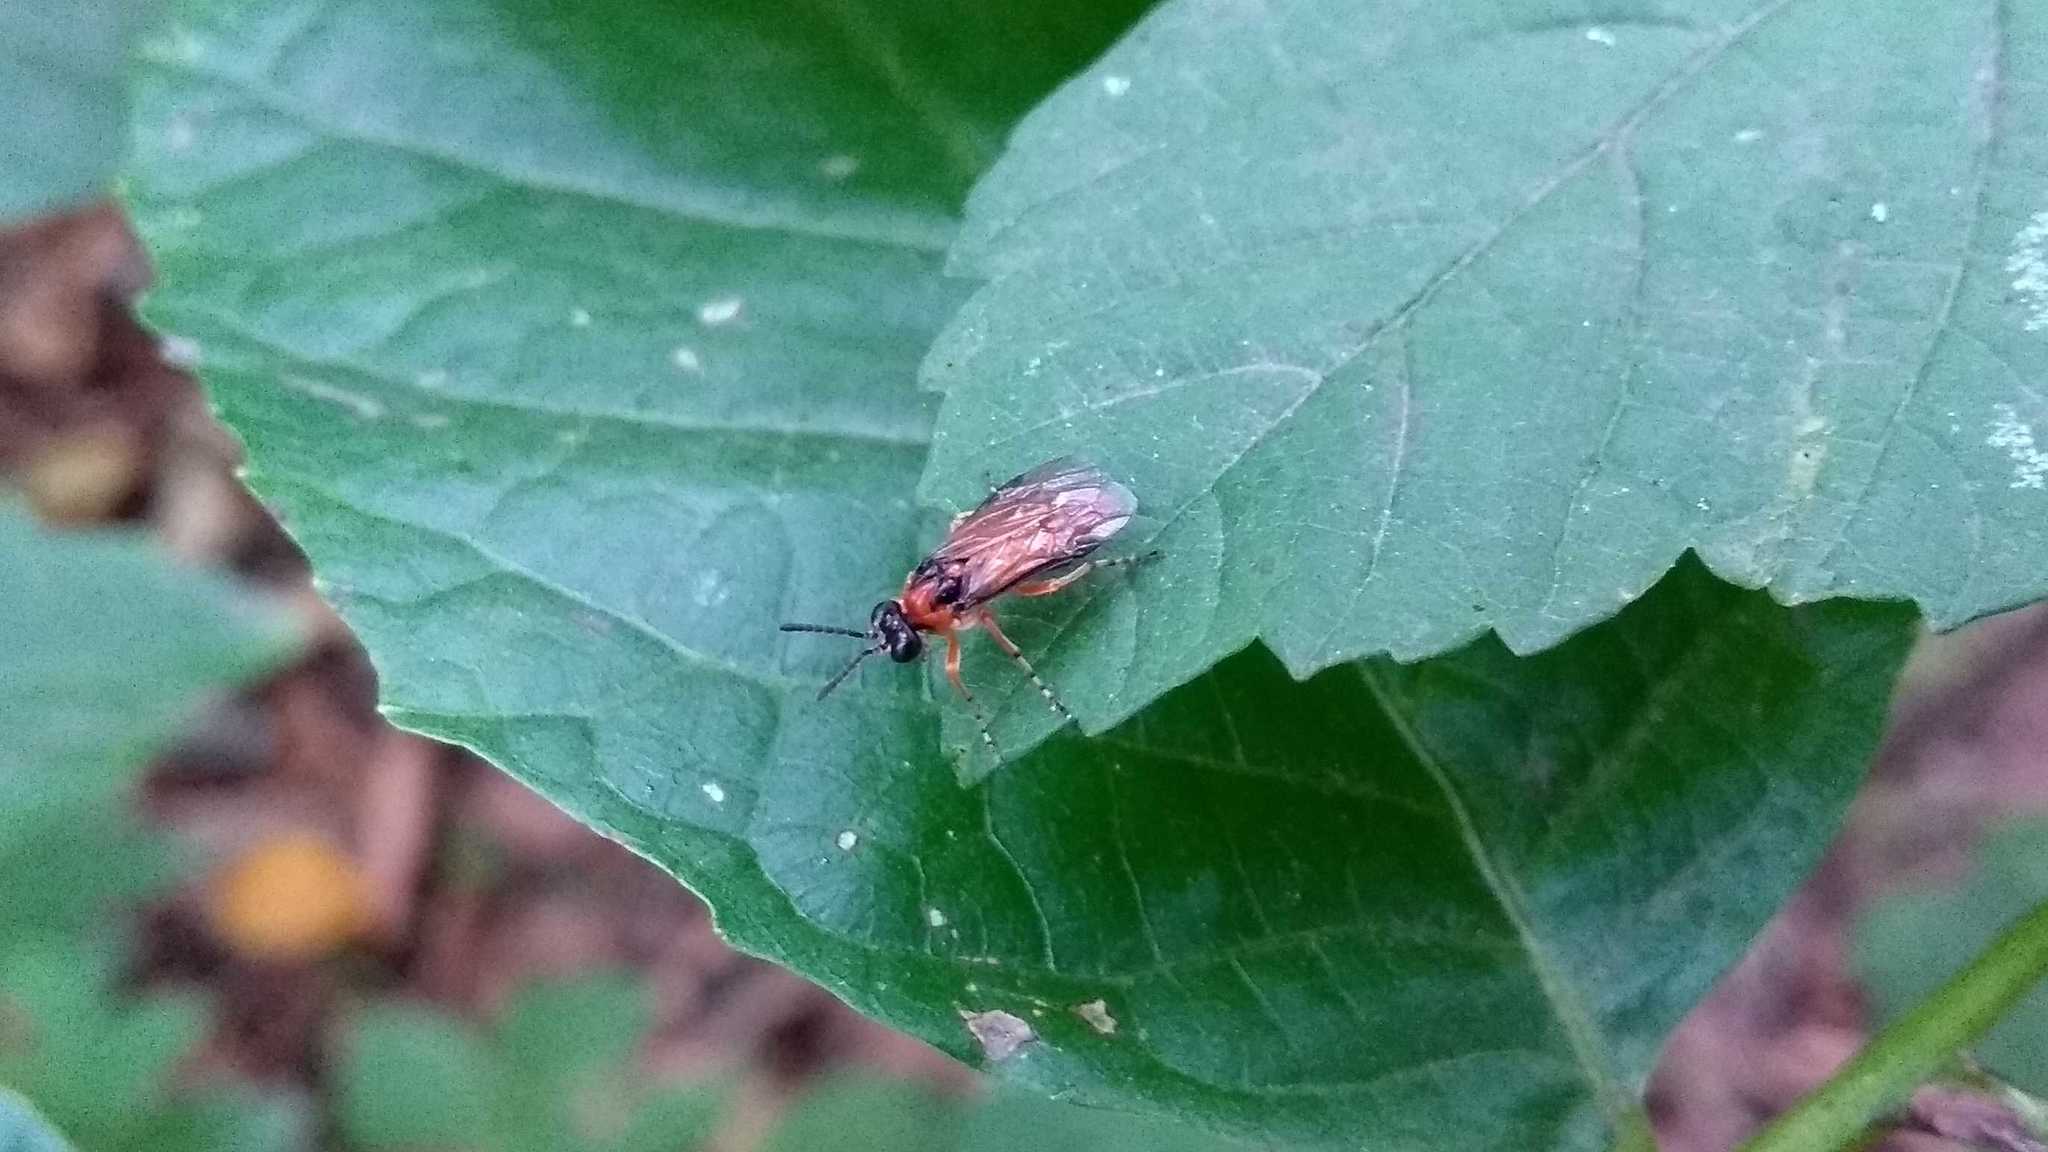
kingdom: Animalia
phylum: Arthropoda
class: Insecta
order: Hymenoptera
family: Tenthredinidae
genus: Athalia
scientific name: Athalia rosae
